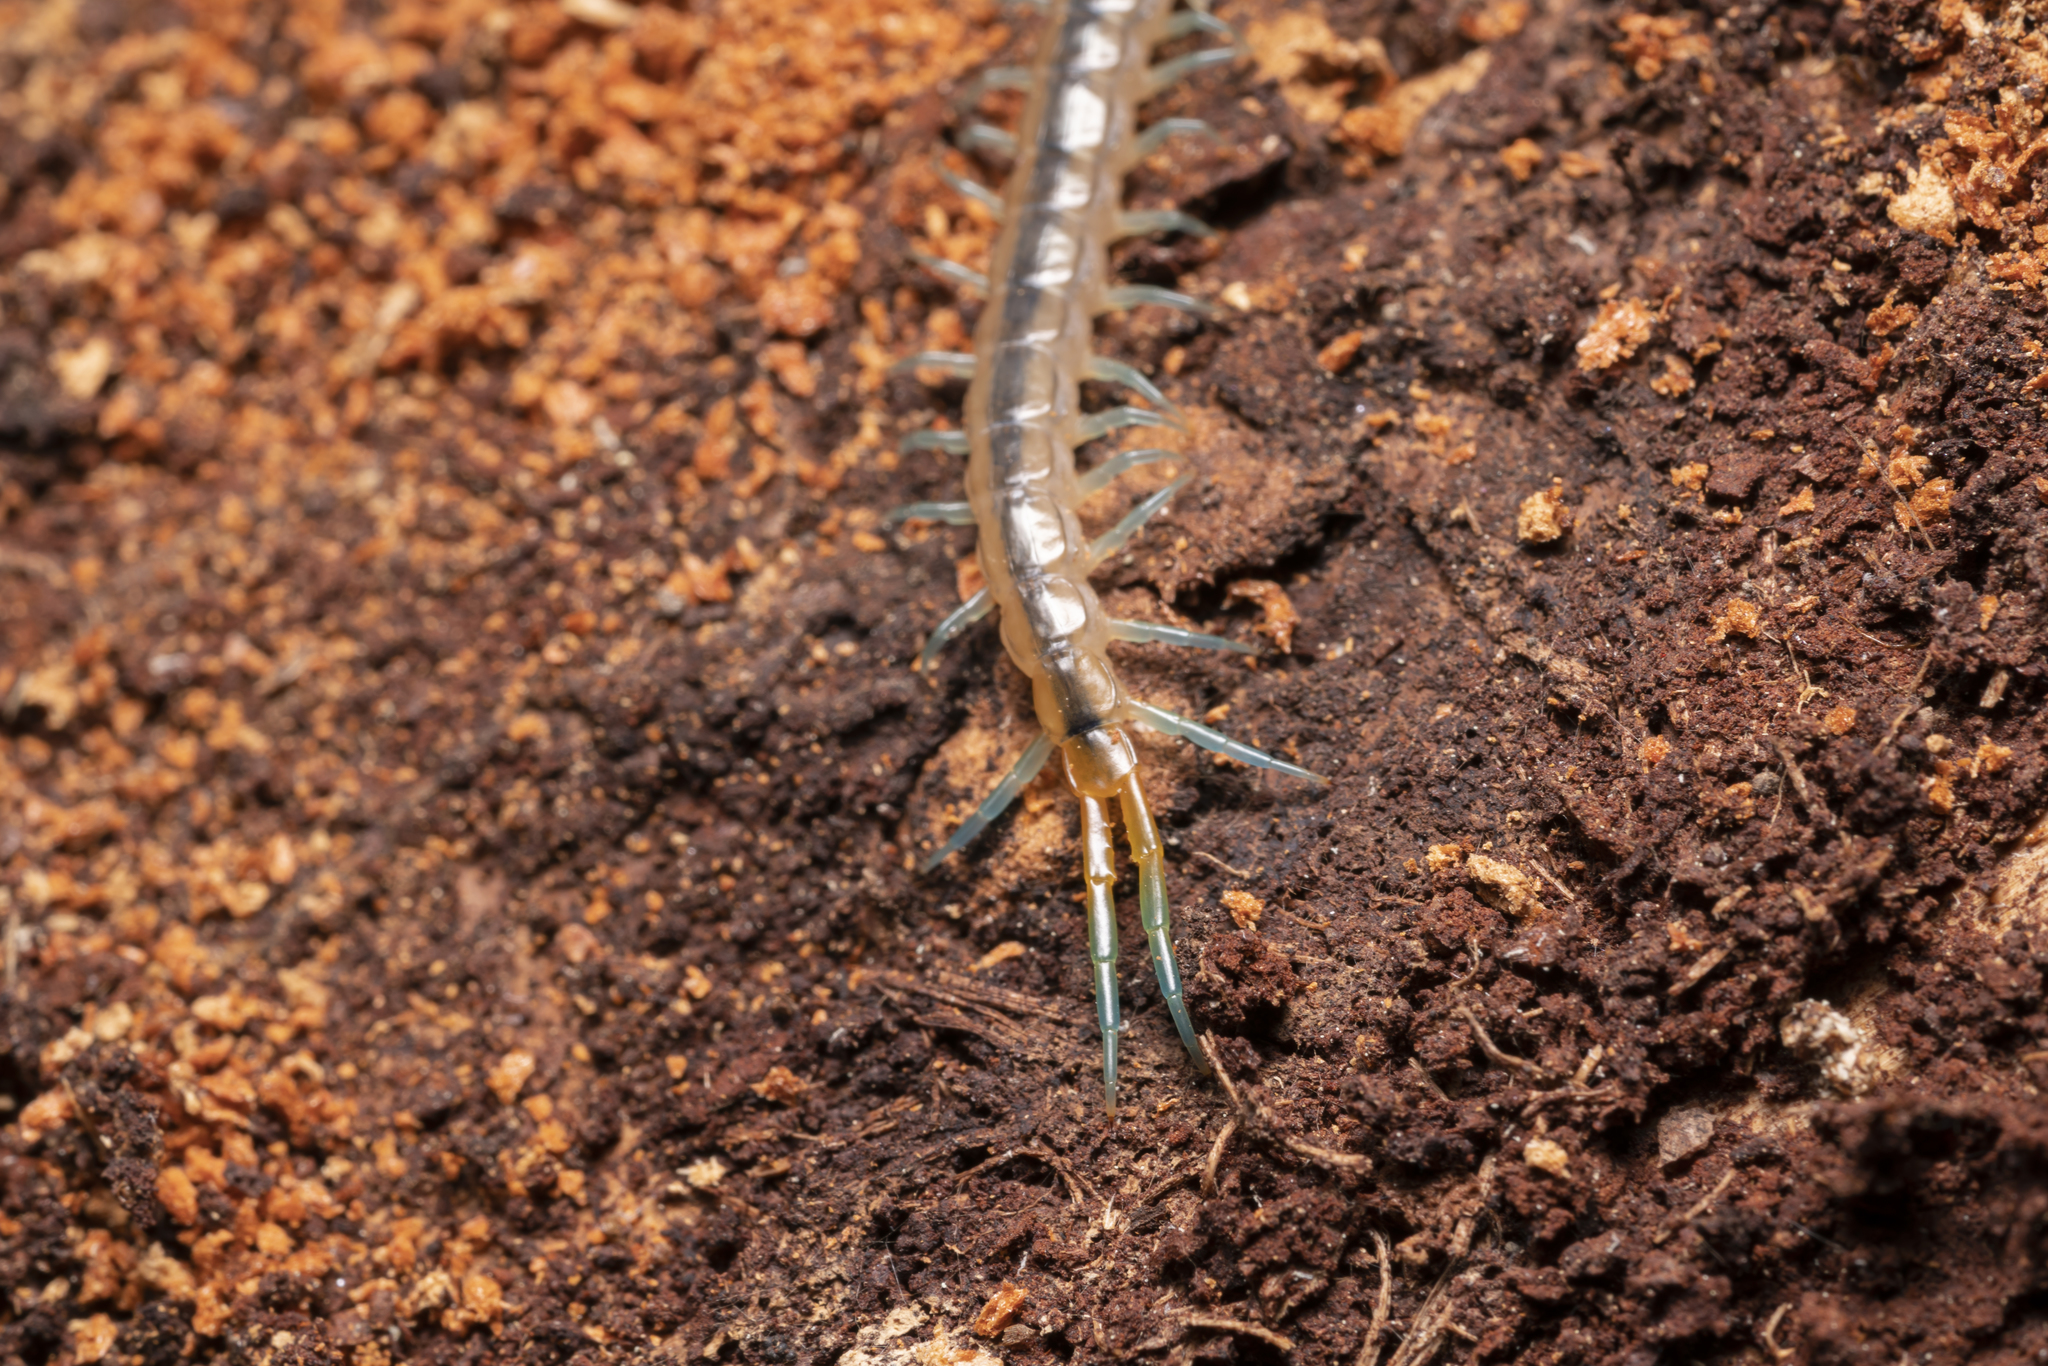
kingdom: Animalia
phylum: Arthropoda
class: Chilopoda
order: Scolopendromorpha
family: Scolopendridae
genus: Scolopendra
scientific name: Scolopendra cingulata
